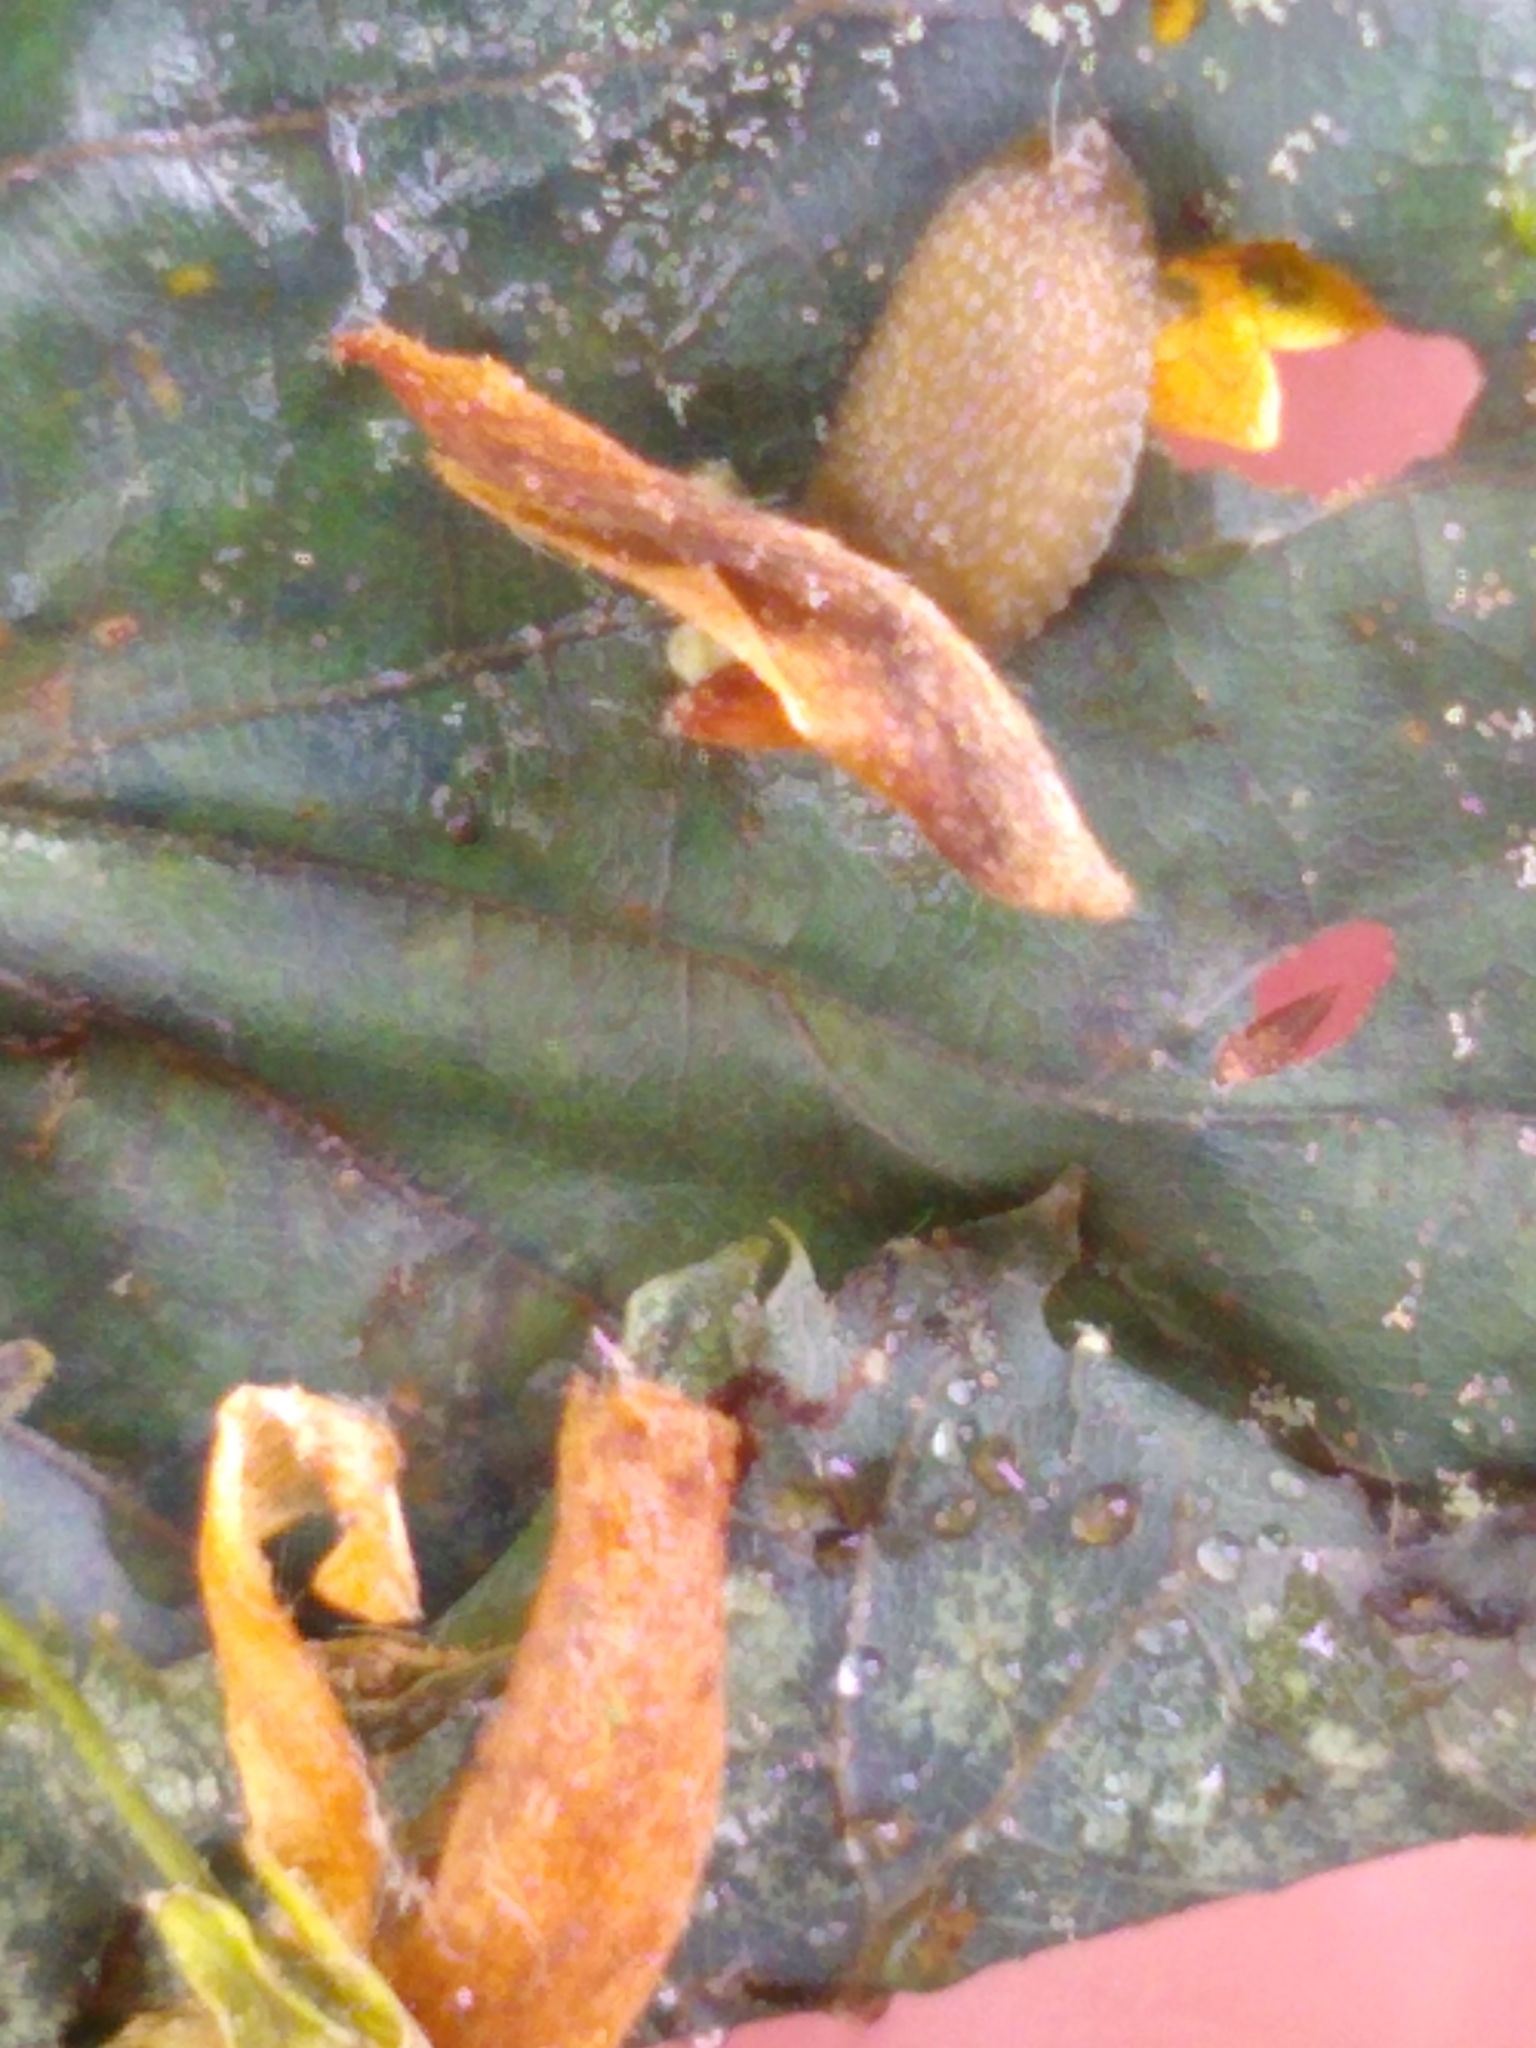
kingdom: Animalia
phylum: Mollusca
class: Gastropoda
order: Stylommatophora
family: Arionidae
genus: Arion
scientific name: Arion intermedius
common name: Hedgehog slug
